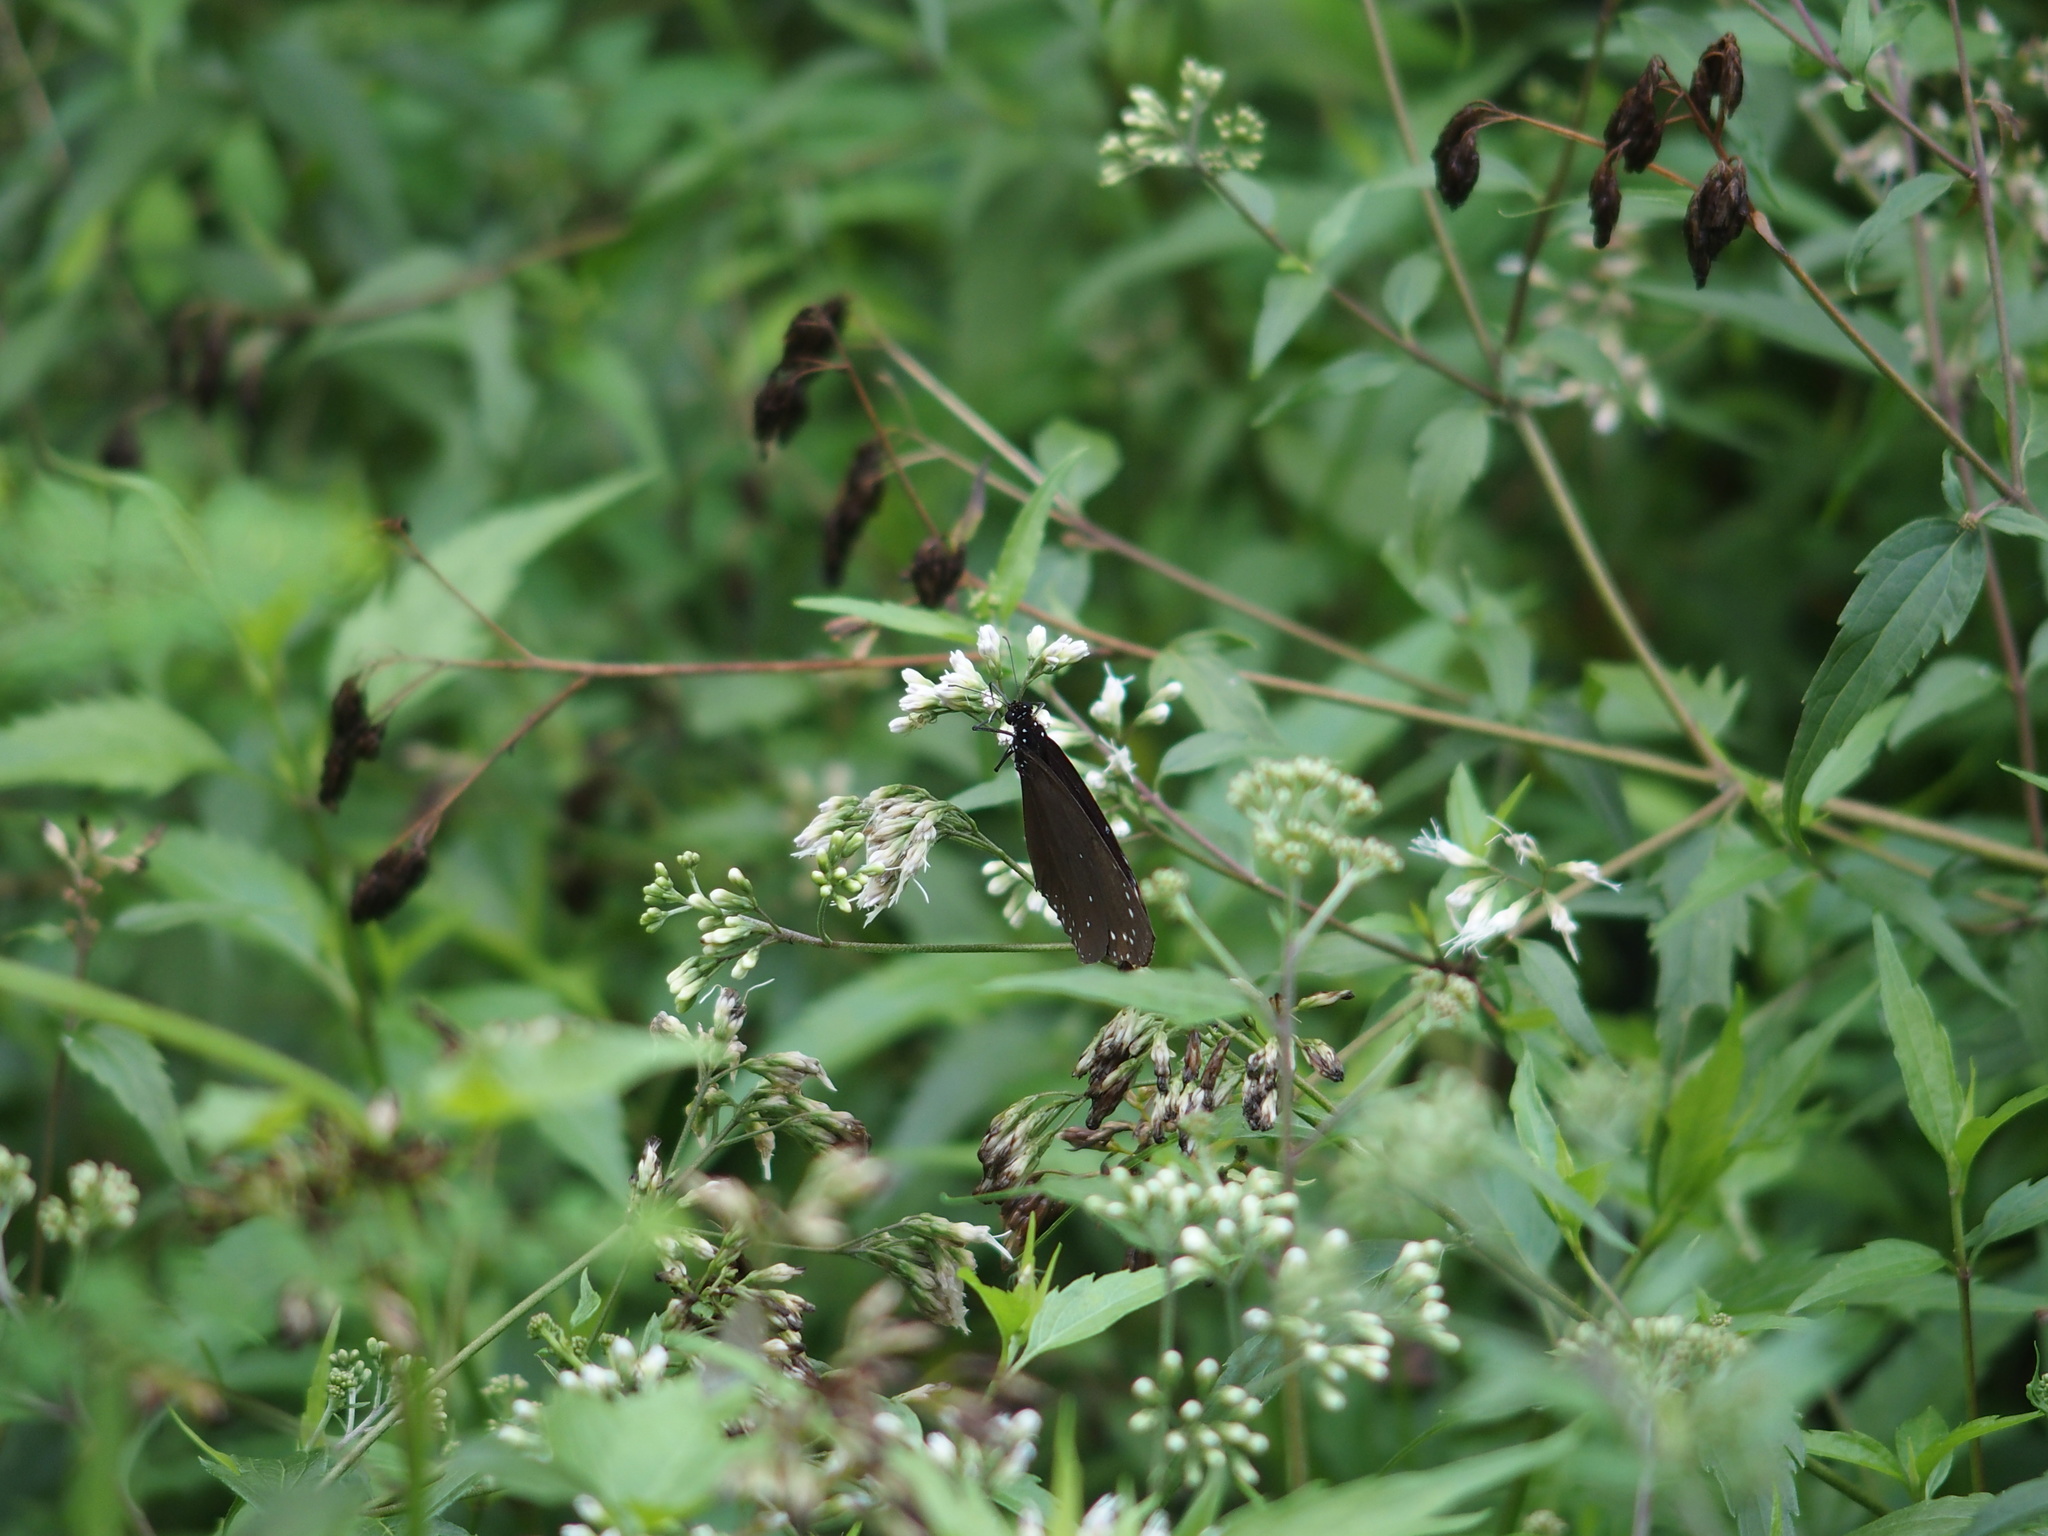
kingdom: Animalia
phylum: Arthropoda
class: Insecta
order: Lepidoptera
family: Nymphalidae
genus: Euploea
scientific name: Euploea tulliolus
